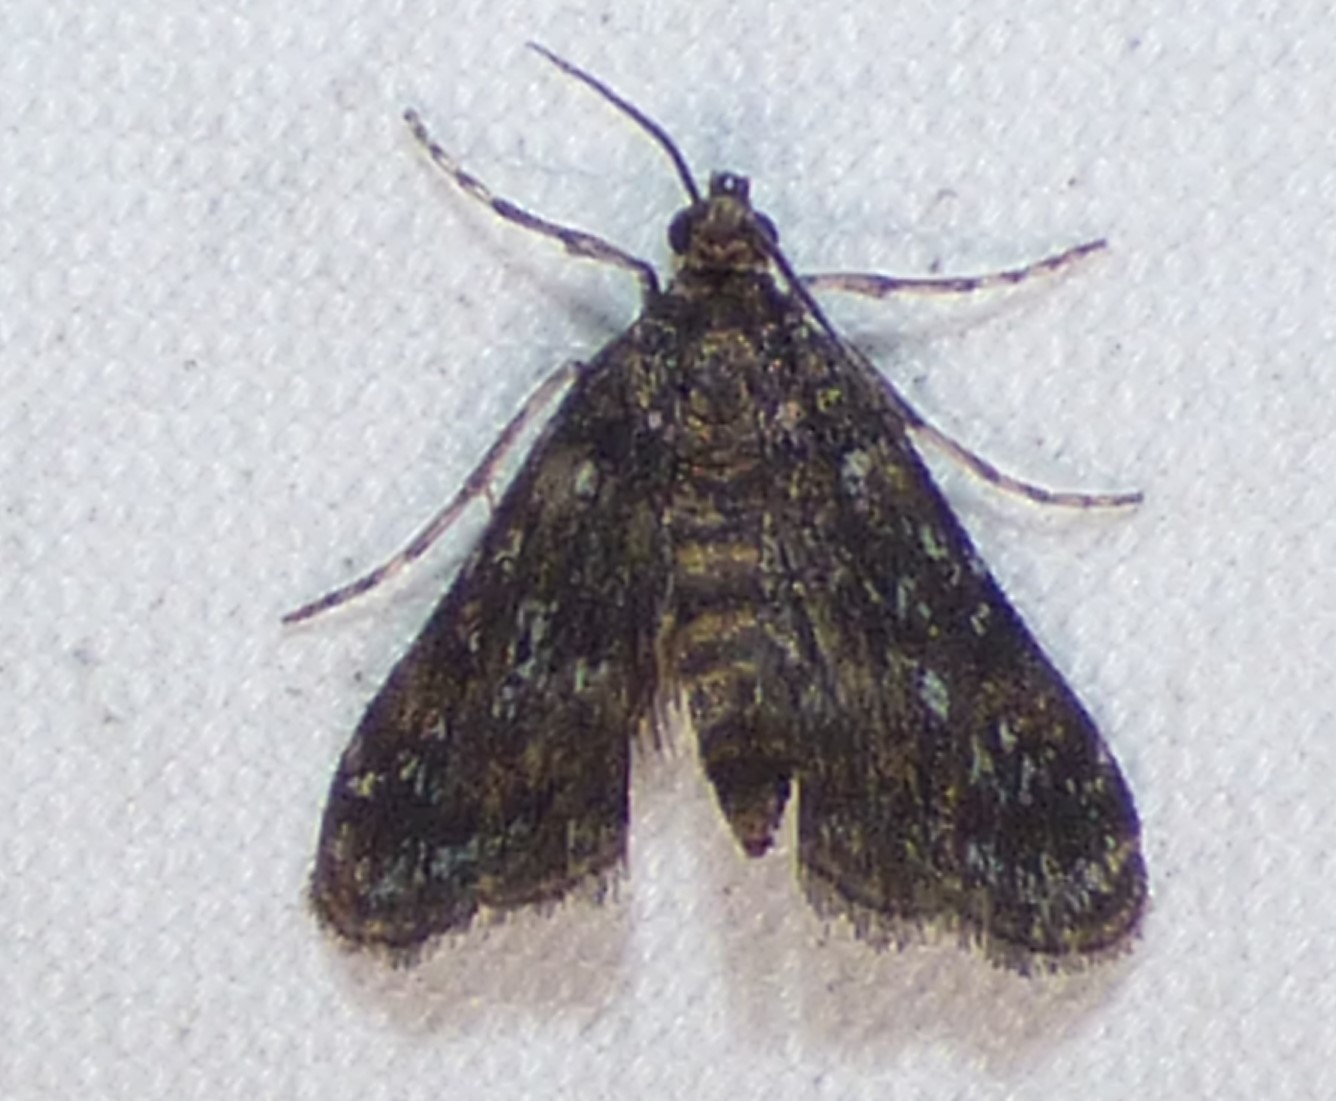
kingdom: Animalia
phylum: Arthropoda
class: Insecta
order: Lepidoptera
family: Crambidae
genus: Elophila
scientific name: Elophila obliteralis
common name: Waterlily leafcutter moth
